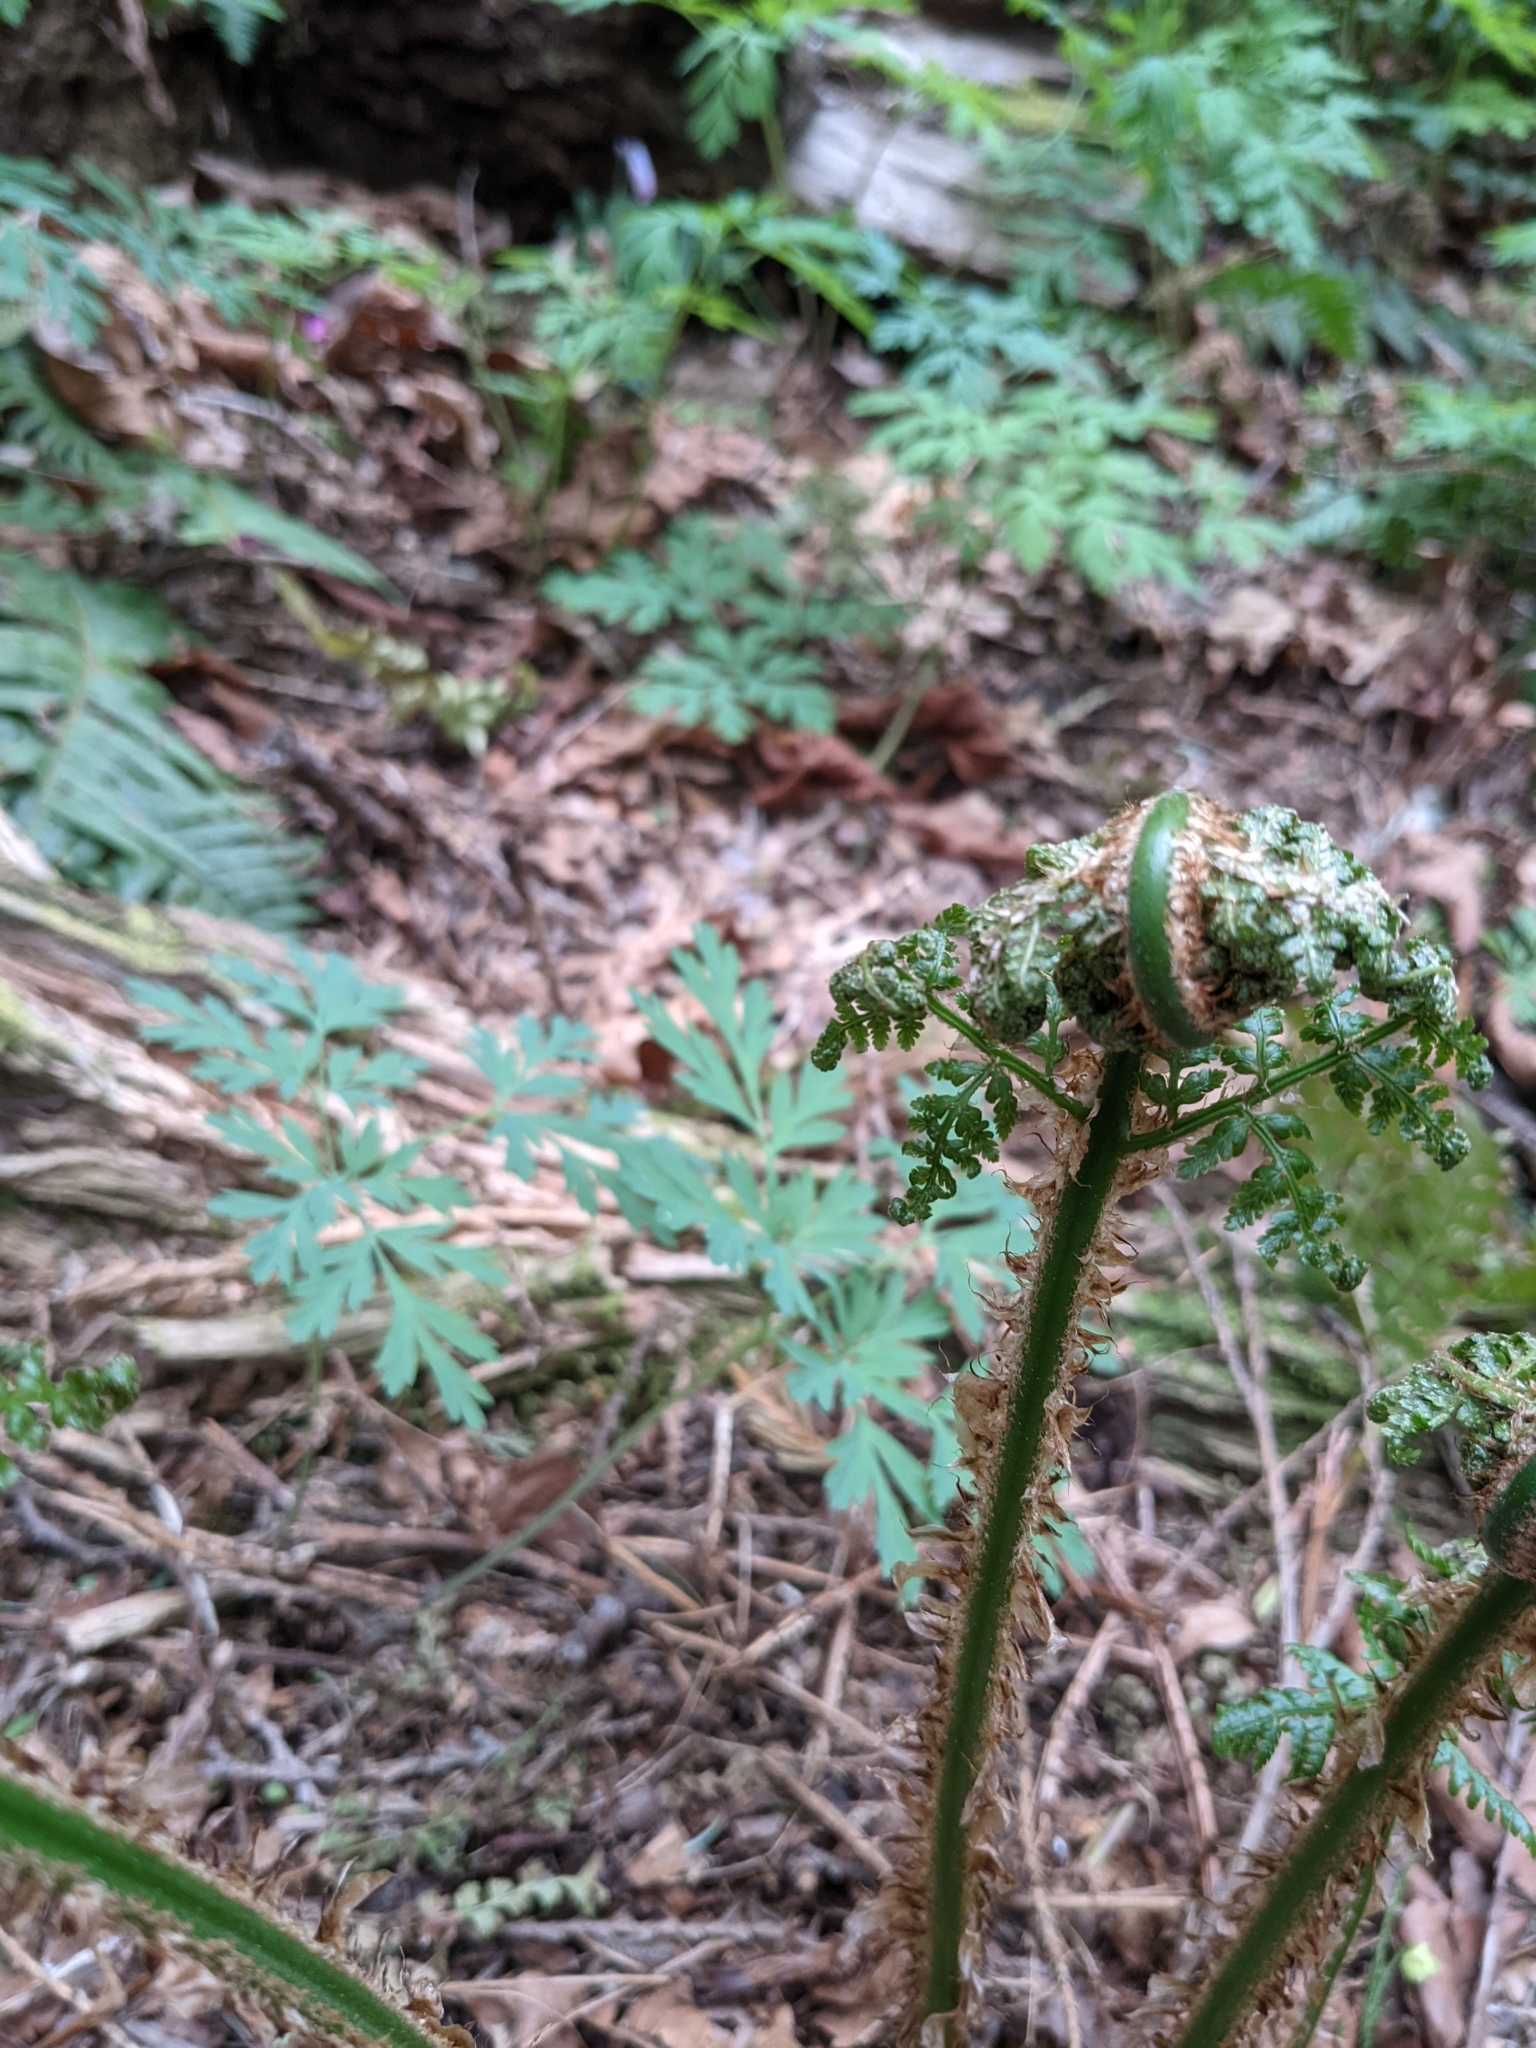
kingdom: Plantae
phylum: Tracheophyta
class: Polypodiopsida
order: Polypodiales
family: Dryopteridaceae
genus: Dryopteris
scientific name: Dryopteris expansa
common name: Northern buckler fern
